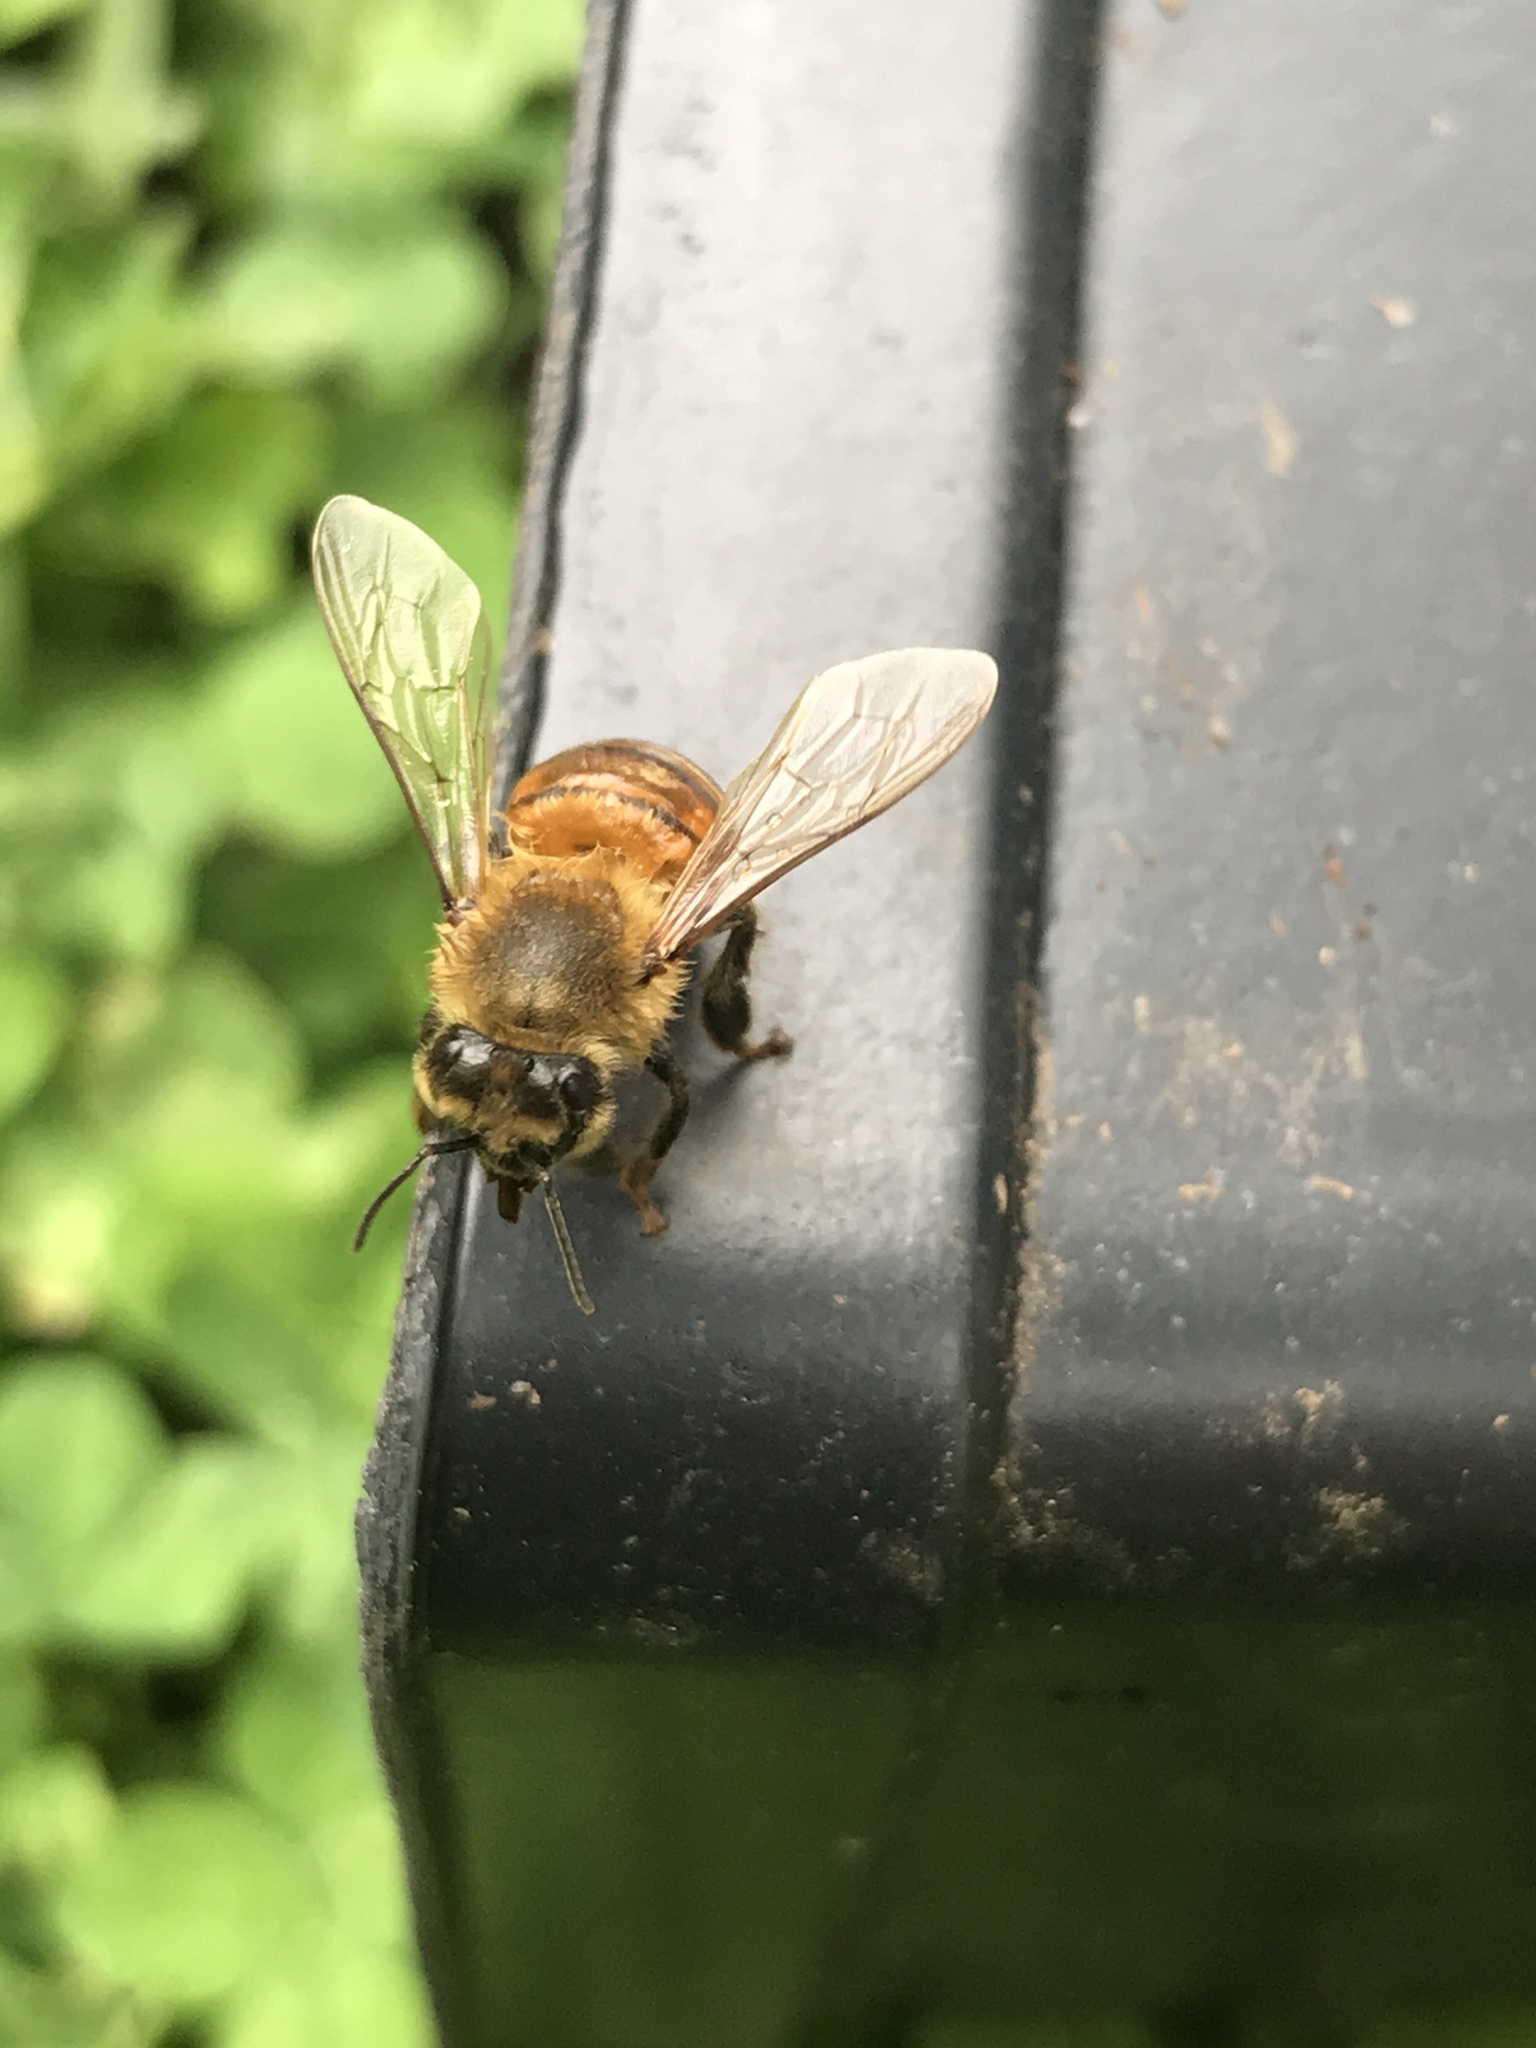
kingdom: Animalia
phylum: Arthropoda
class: Insecta
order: Hymenoptera
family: Apidae
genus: Apis
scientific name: Apis mellifera
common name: Honey bee
